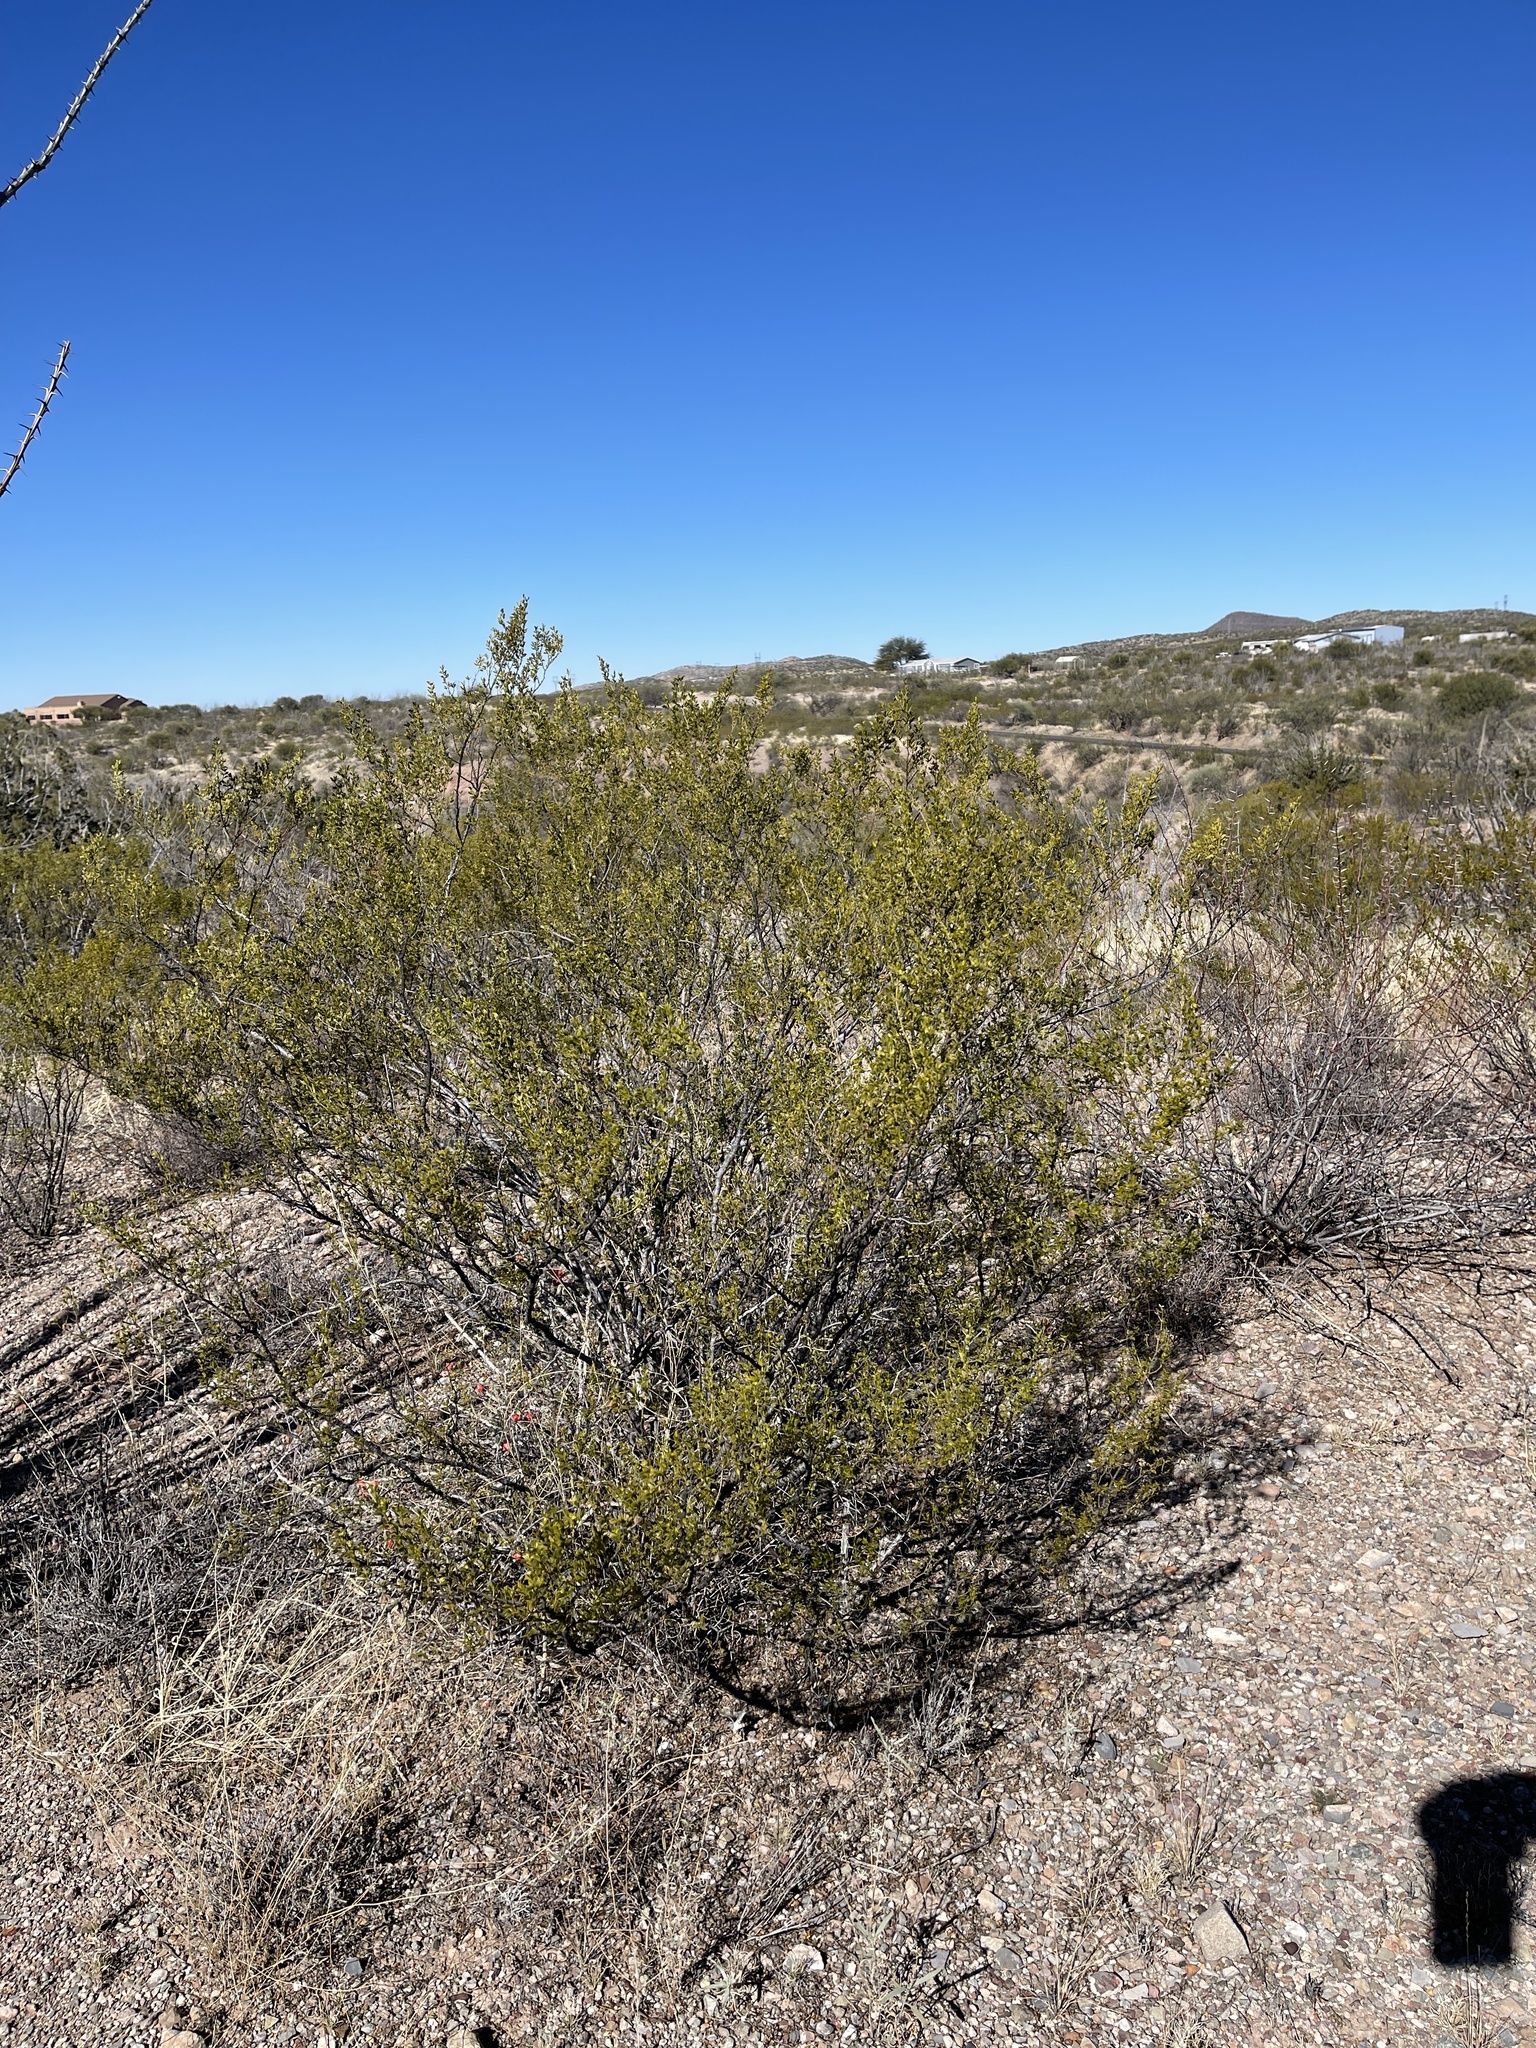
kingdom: Plantae
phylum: Tracheophyta
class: Magnoliopsida
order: Zygophyllales
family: Zygophyllaceae
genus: Larrea
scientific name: Larrea tridentata
